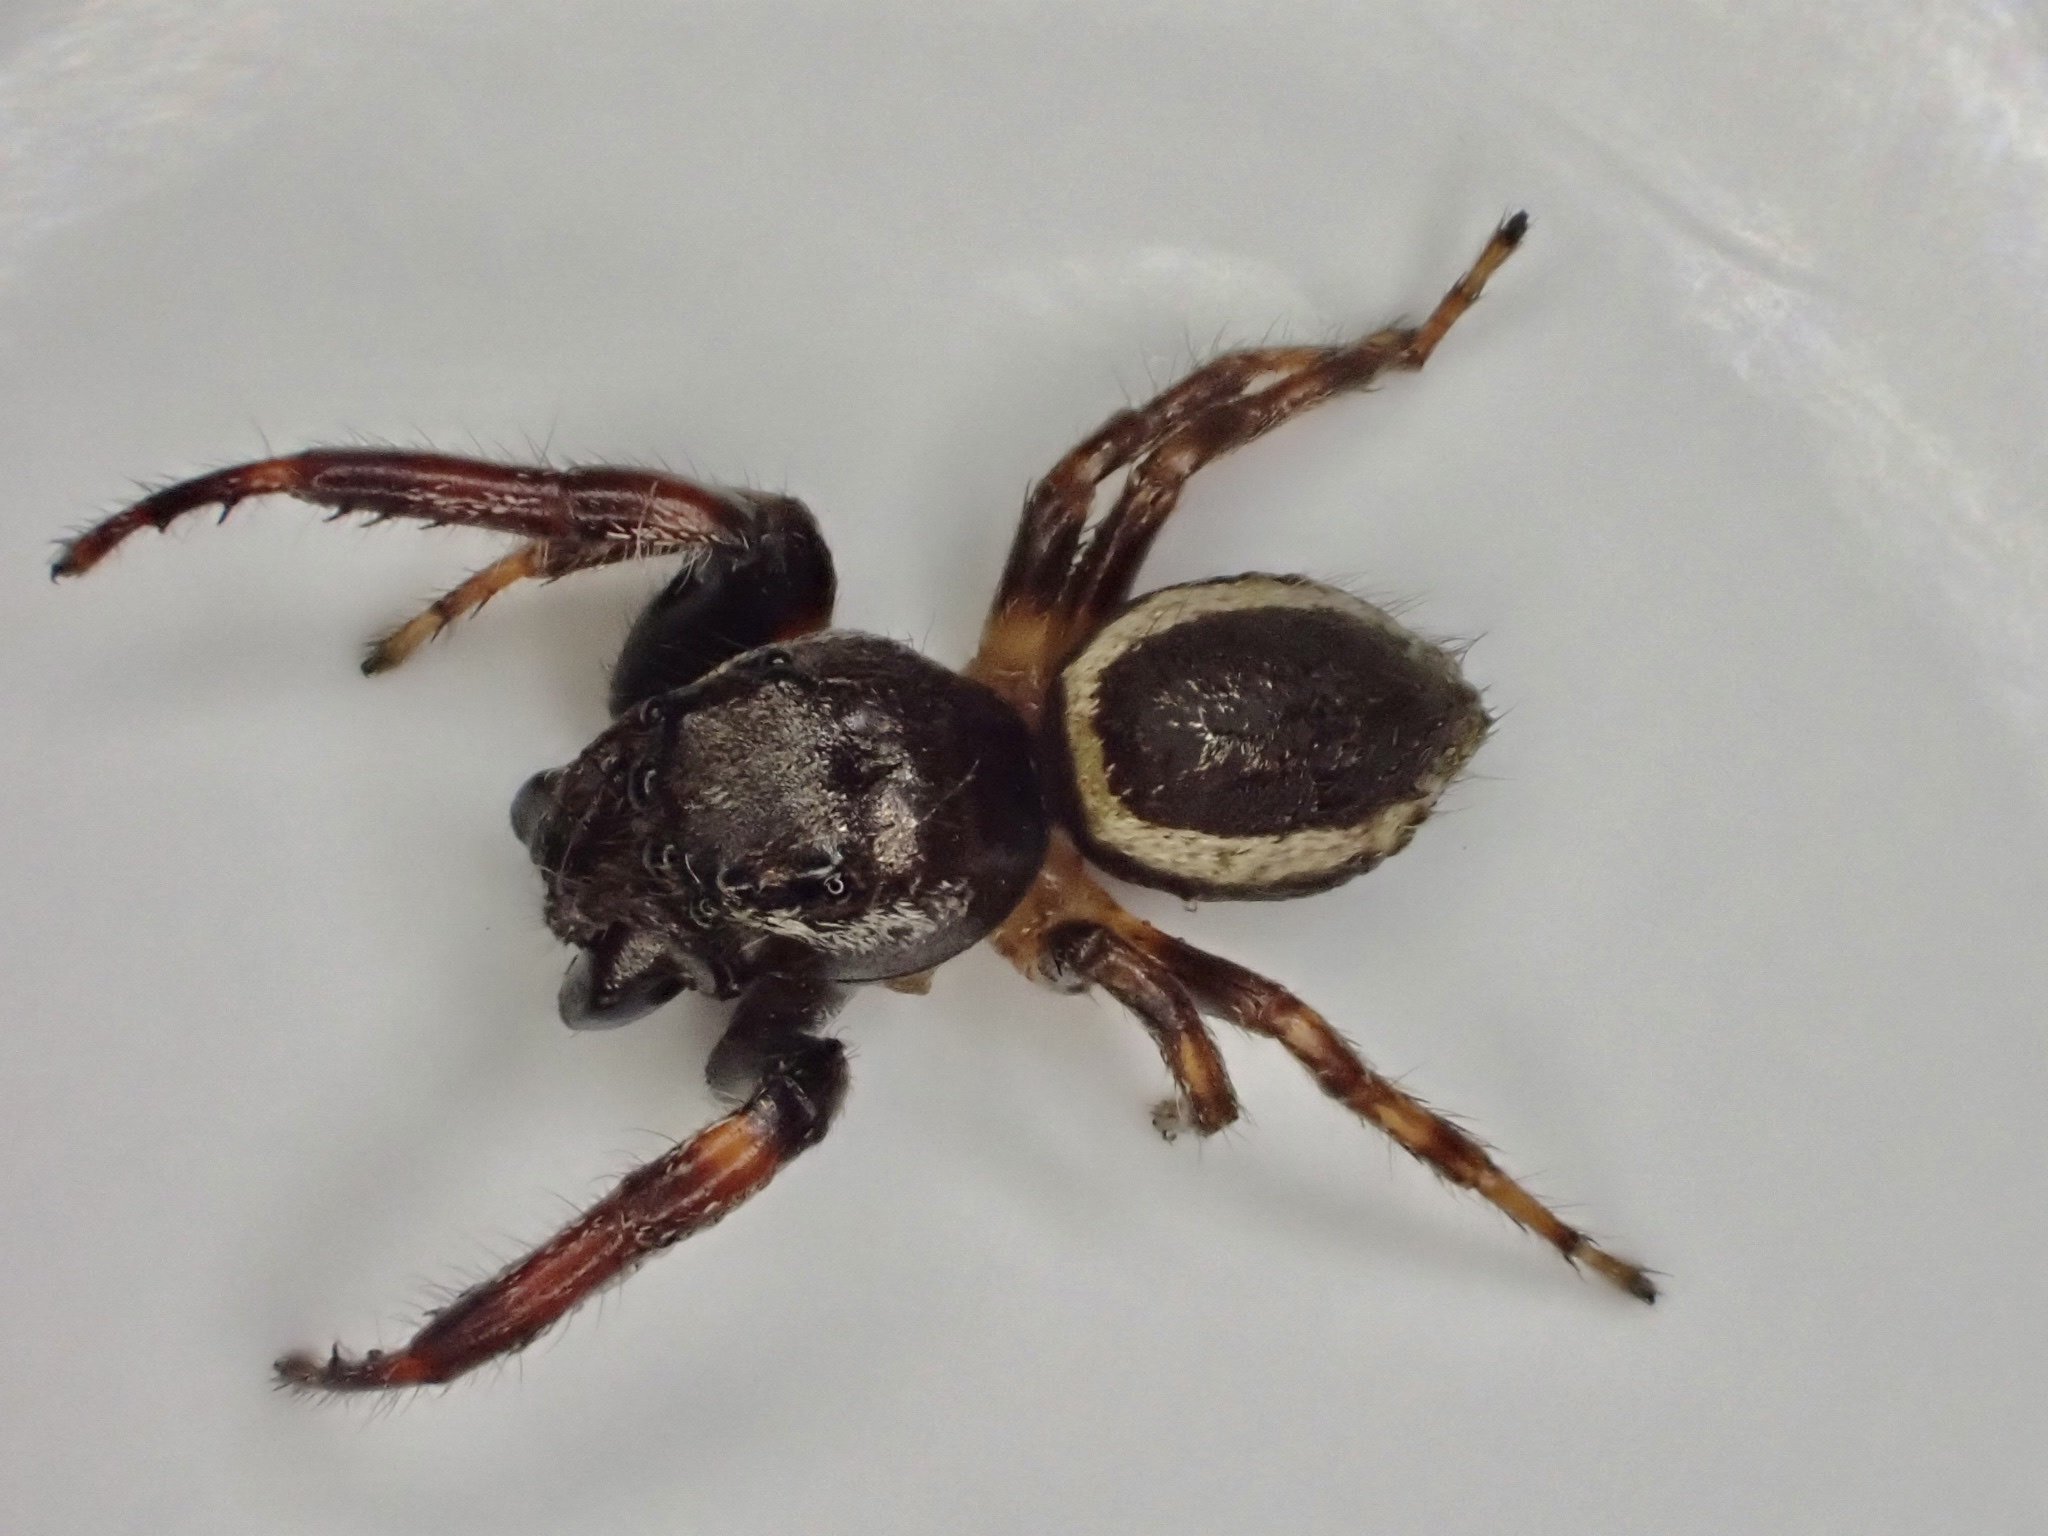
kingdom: Animalia
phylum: Arthropoda
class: Arachnida
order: Araneae
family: Salticidae
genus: Eris
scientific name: Eris militaris
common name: Bronze jumper
